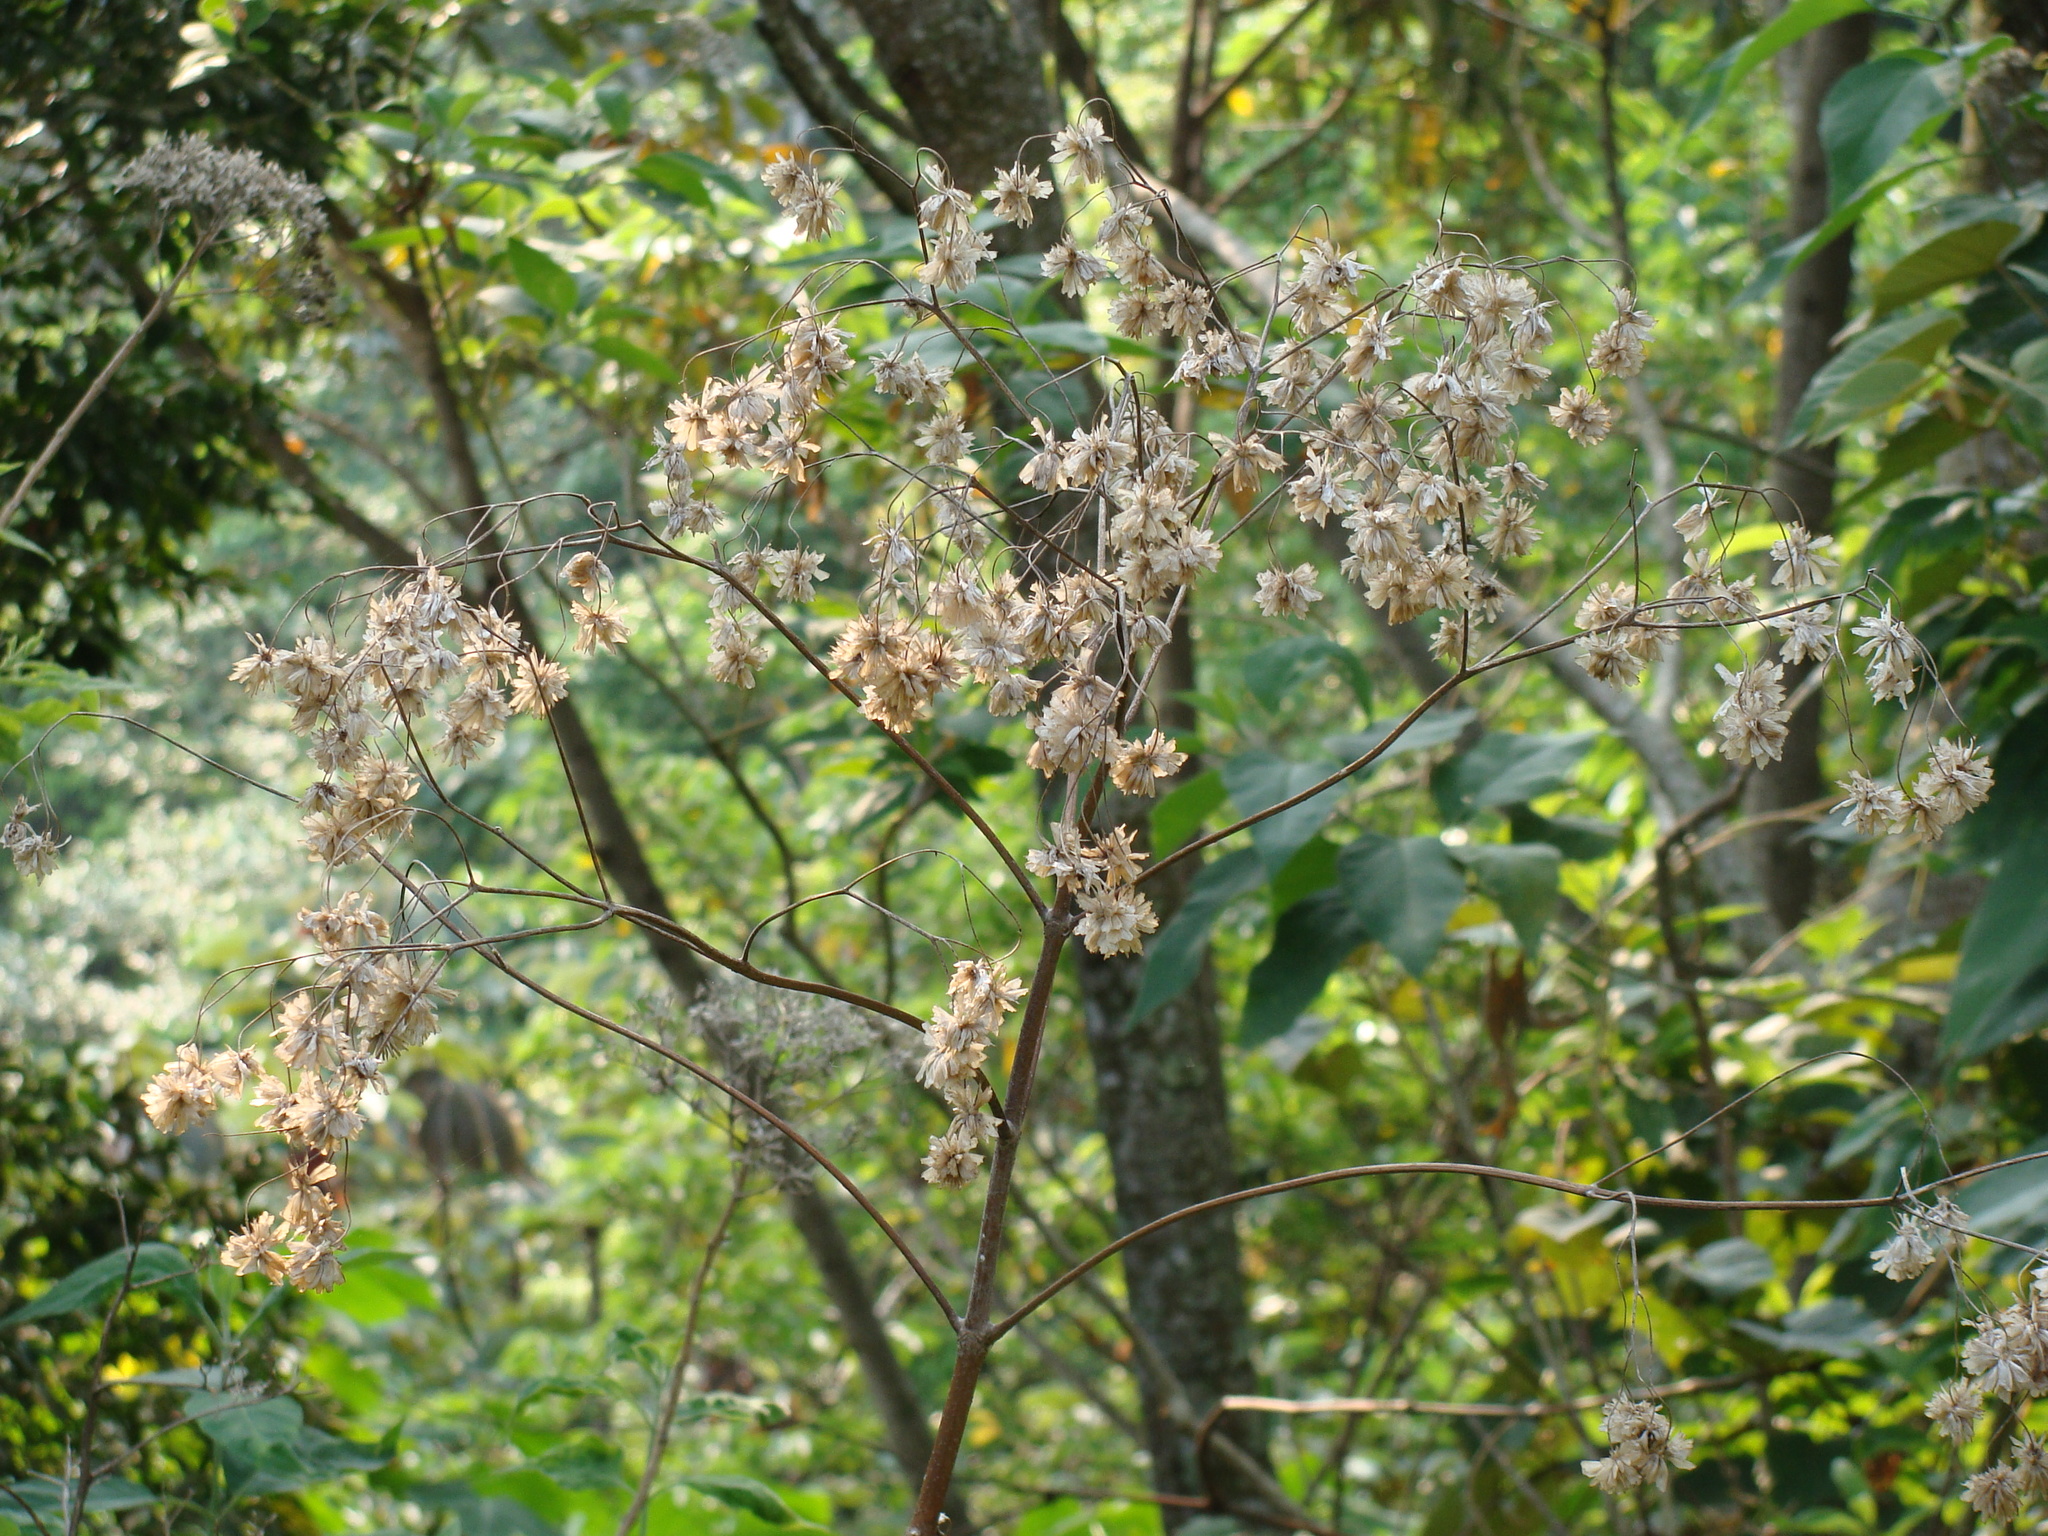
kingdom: Plantae
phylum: Tracheophyta
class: Magnoliopsida
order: Asterales
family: Asteraceae
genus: Montanoa
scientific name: Montanoa hibiscifolia
